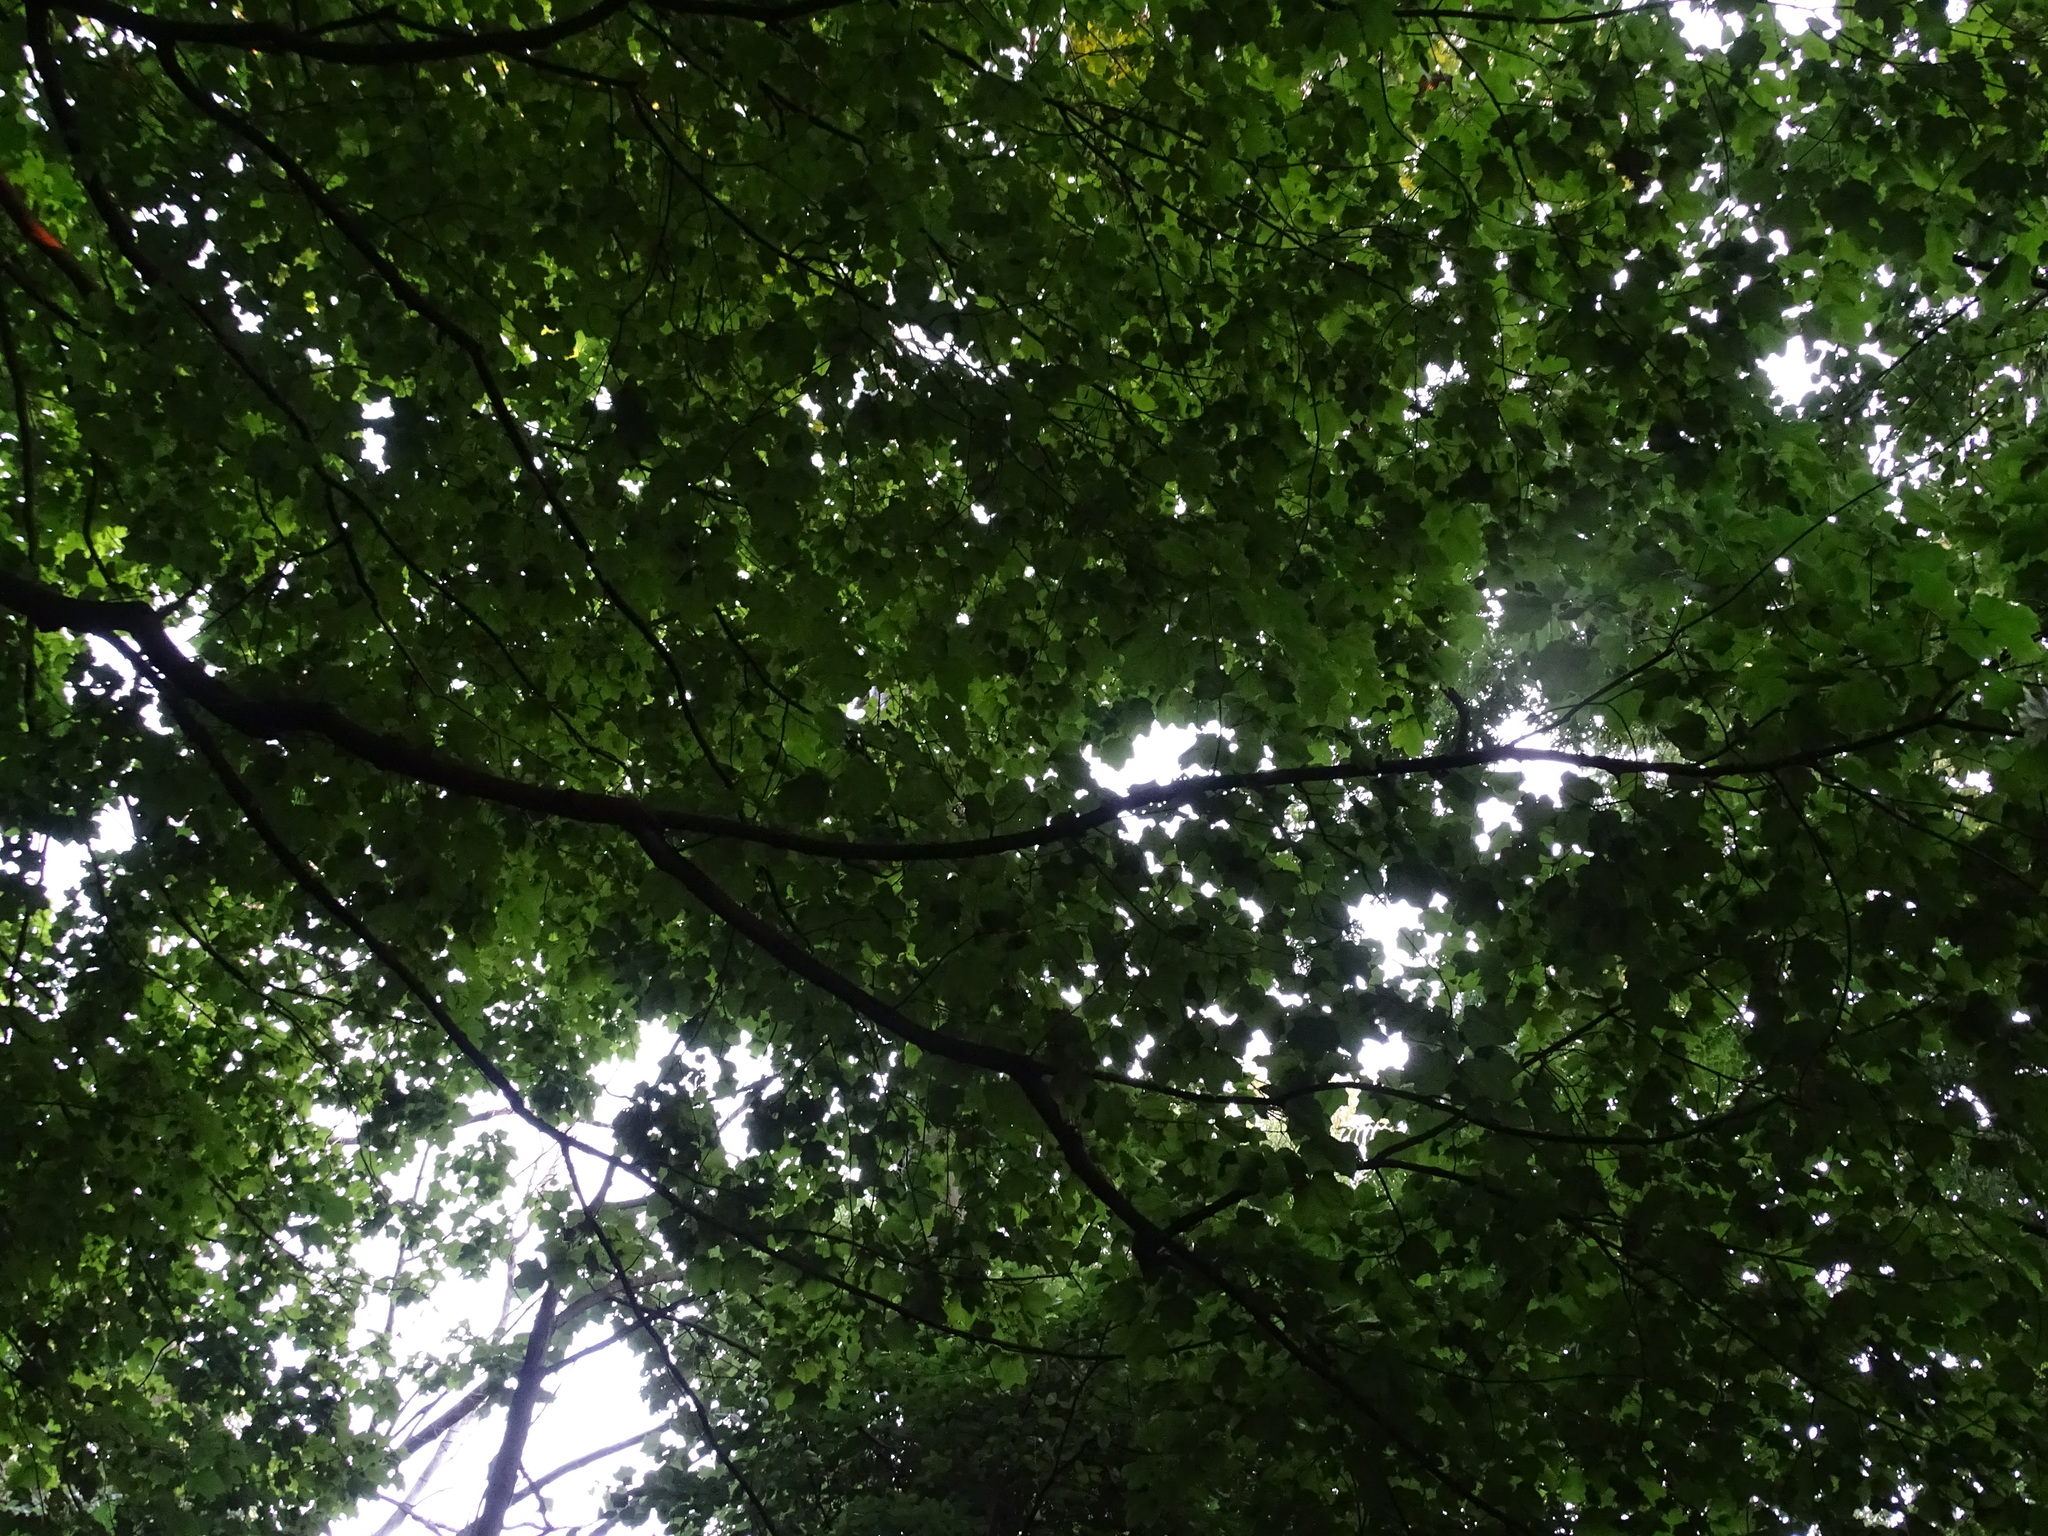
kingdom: Plantae
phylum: Tracheophyta
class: Magnoliopsida
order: Sapindales
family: Sapindaceae
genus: Acer
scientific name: Acer nigrum
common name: Black maple
